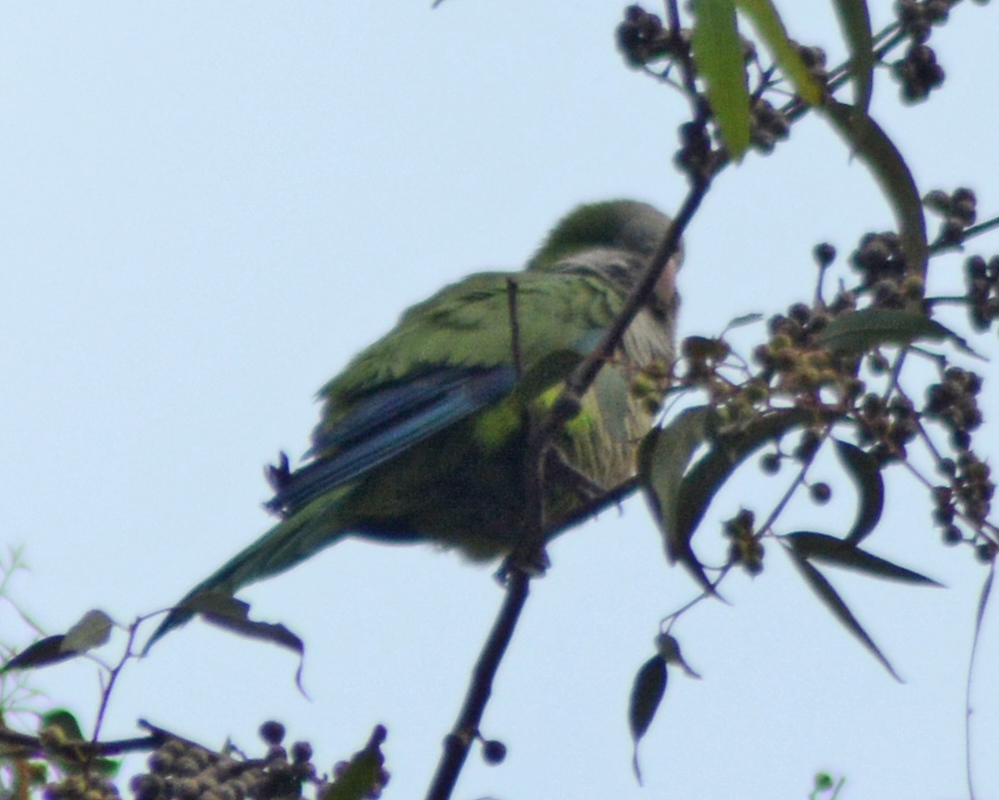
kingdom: Animalia
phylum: Chordata
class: Aves
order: Psittaciformes
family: Psittacidae
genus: Myiopsitta
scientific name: Myiopsitta monachus
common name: Monk parakeet
